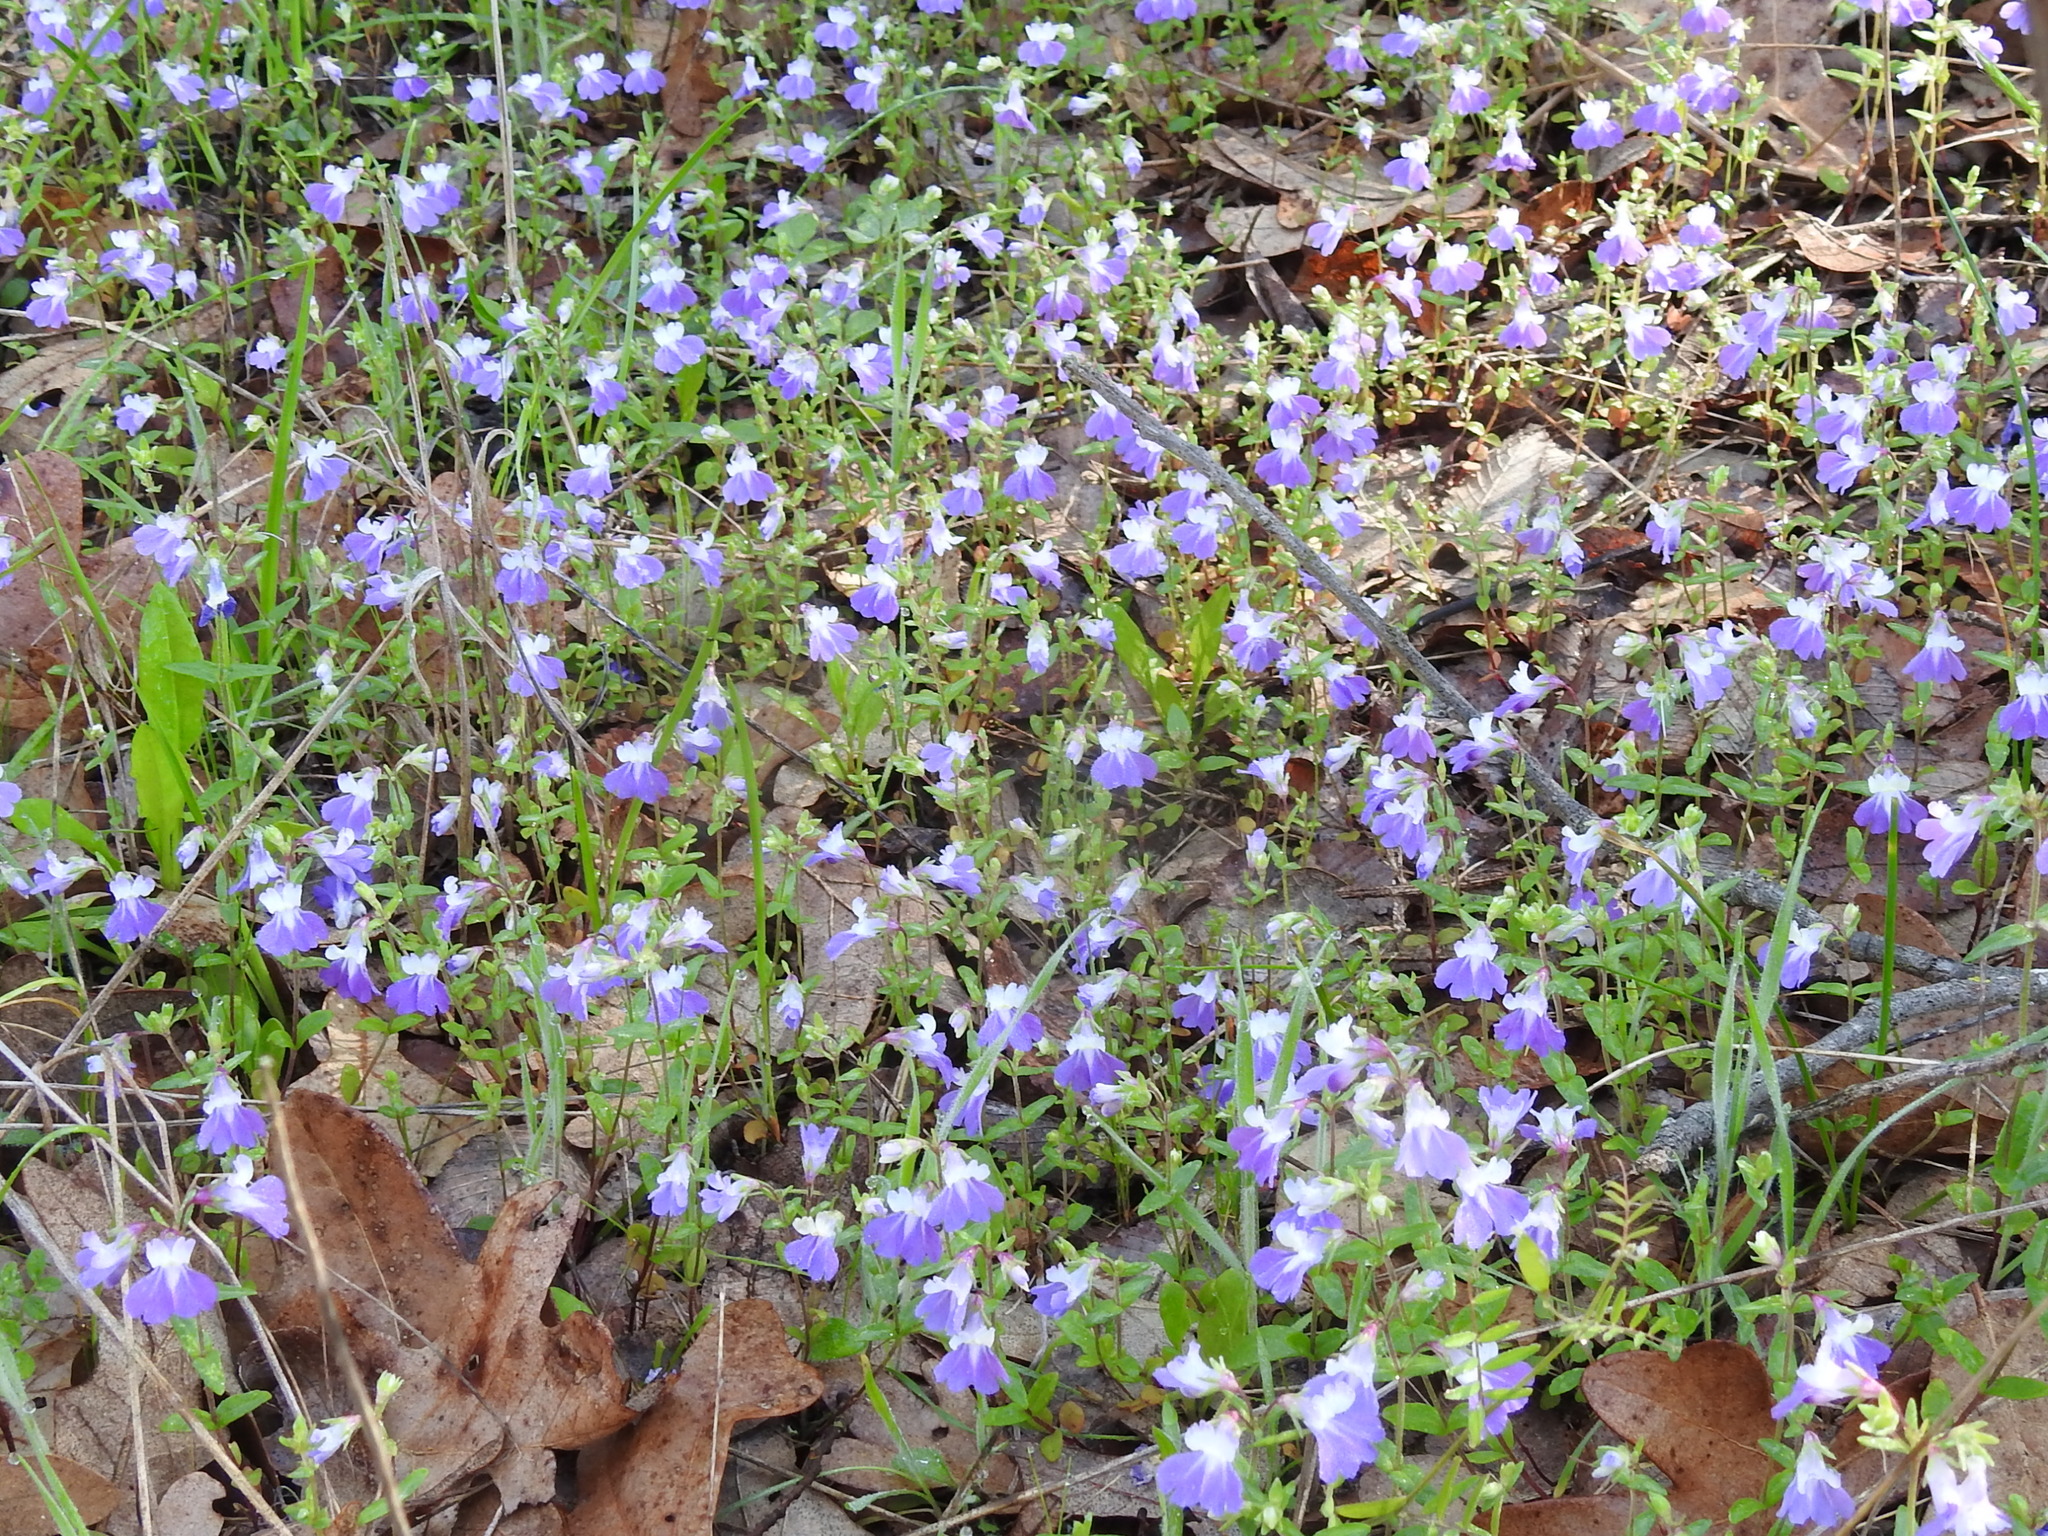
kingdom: Plantae
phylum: Tracheophyta
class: Magnoliopsida
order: Lamiales
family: Plantaginaceae
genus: Collinsia
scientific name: Collinsia violacea
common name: Violet collinsia
